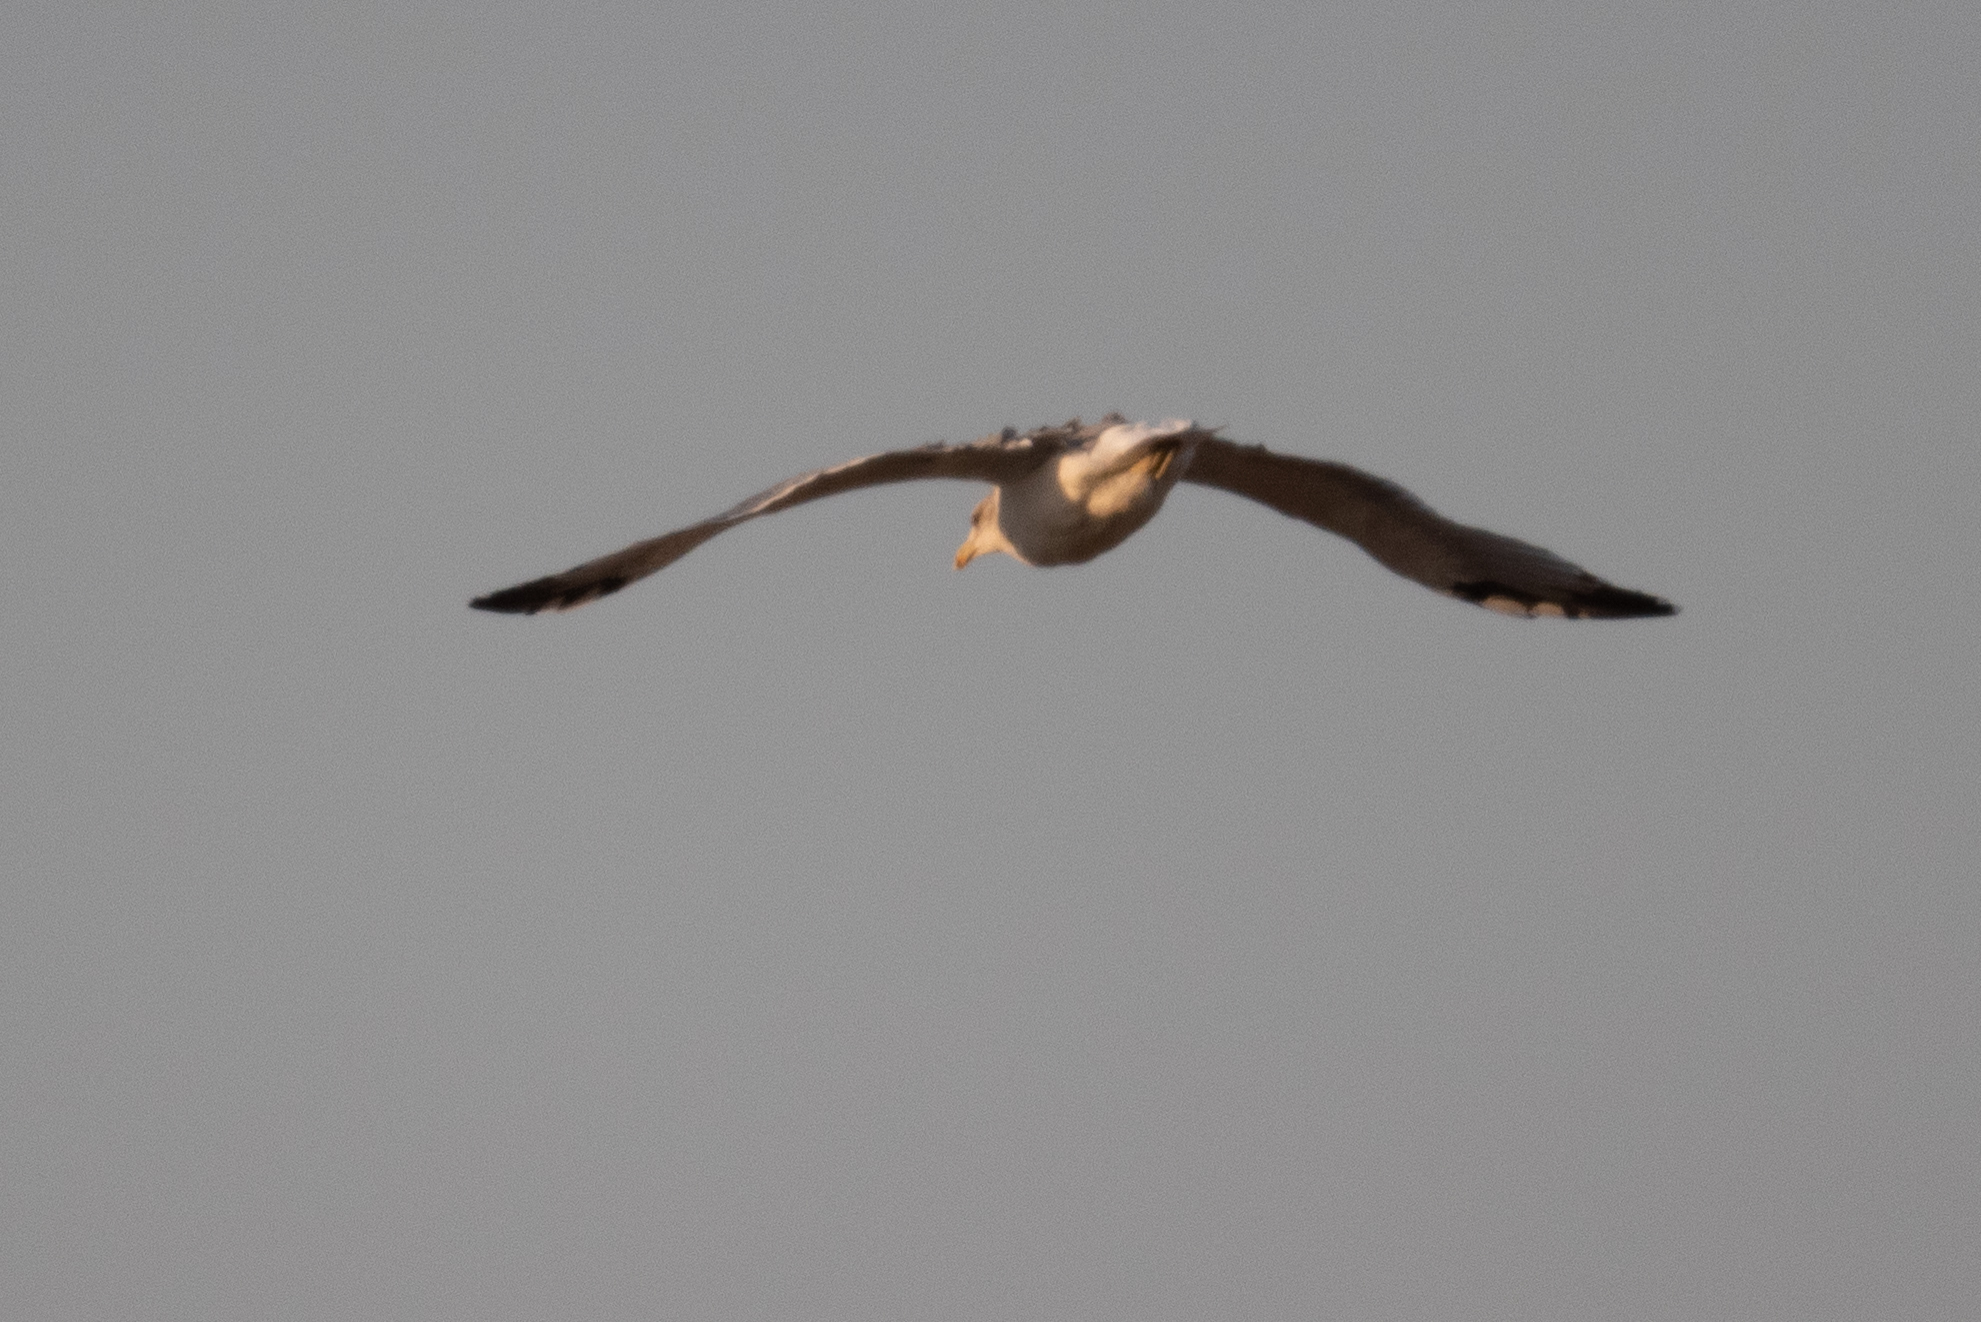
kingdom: Animalia
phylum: Chordata
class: Aves
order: Charadriiformes
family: Laridae
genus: Larus
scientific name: Larus californicus
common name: California gull
